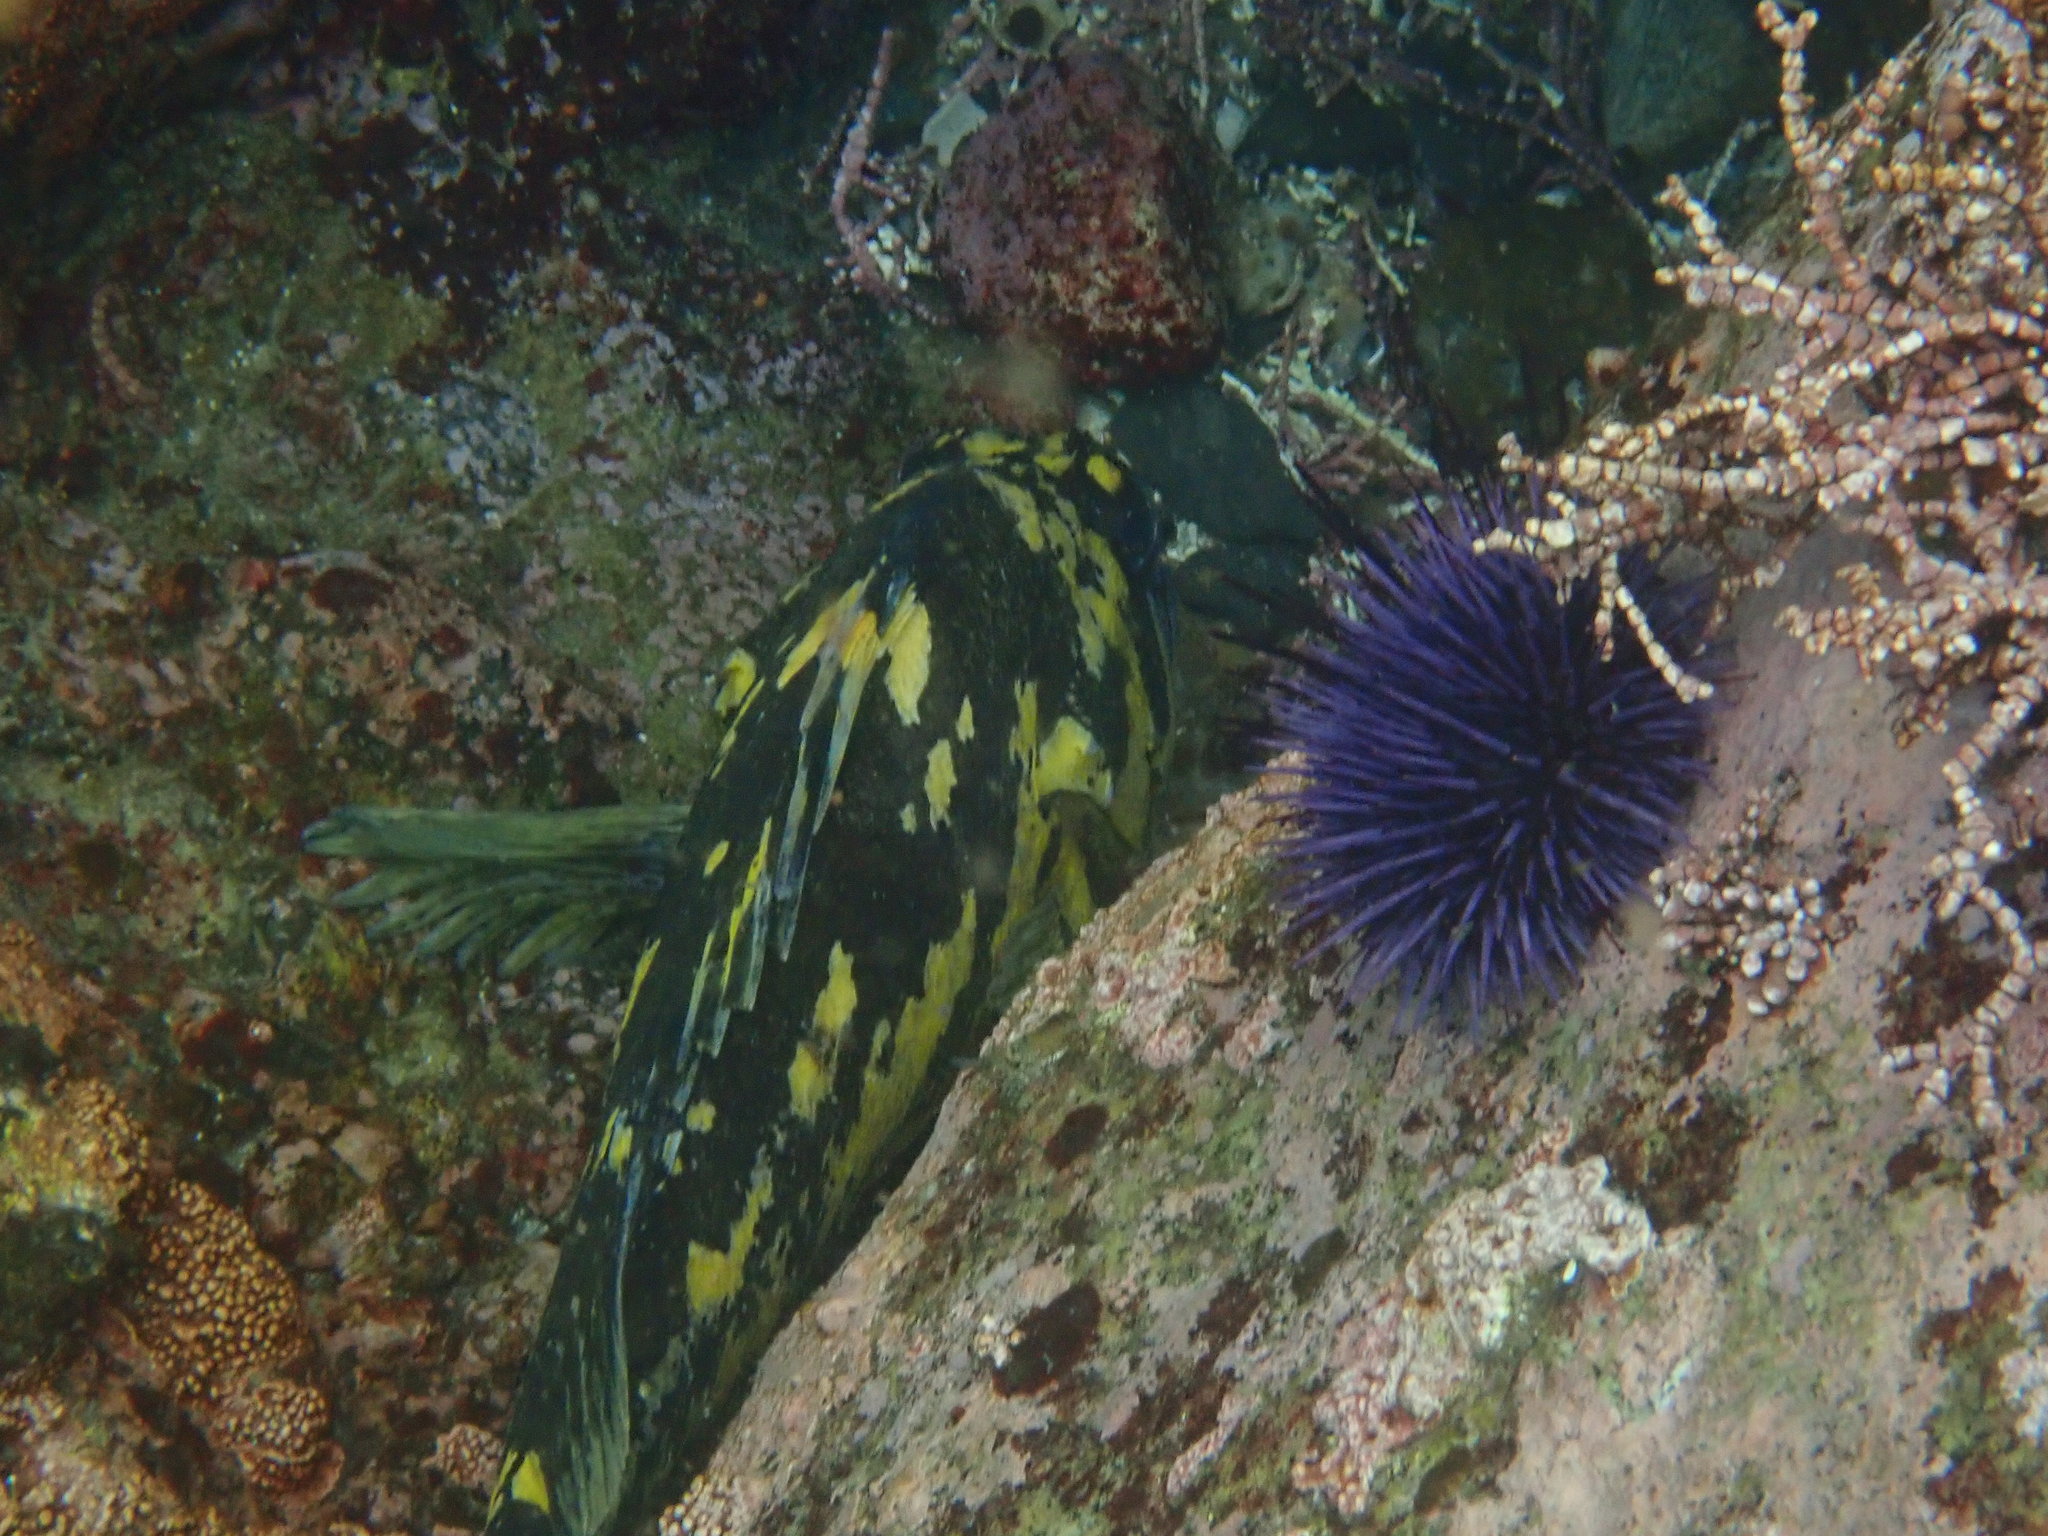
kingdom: Animalia
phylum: Chordata
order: Scorpaeniformes
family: Sebastidae
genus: Sebastes
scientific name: Sebastes chrysomelas
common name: Black-and-yellow rockfish
